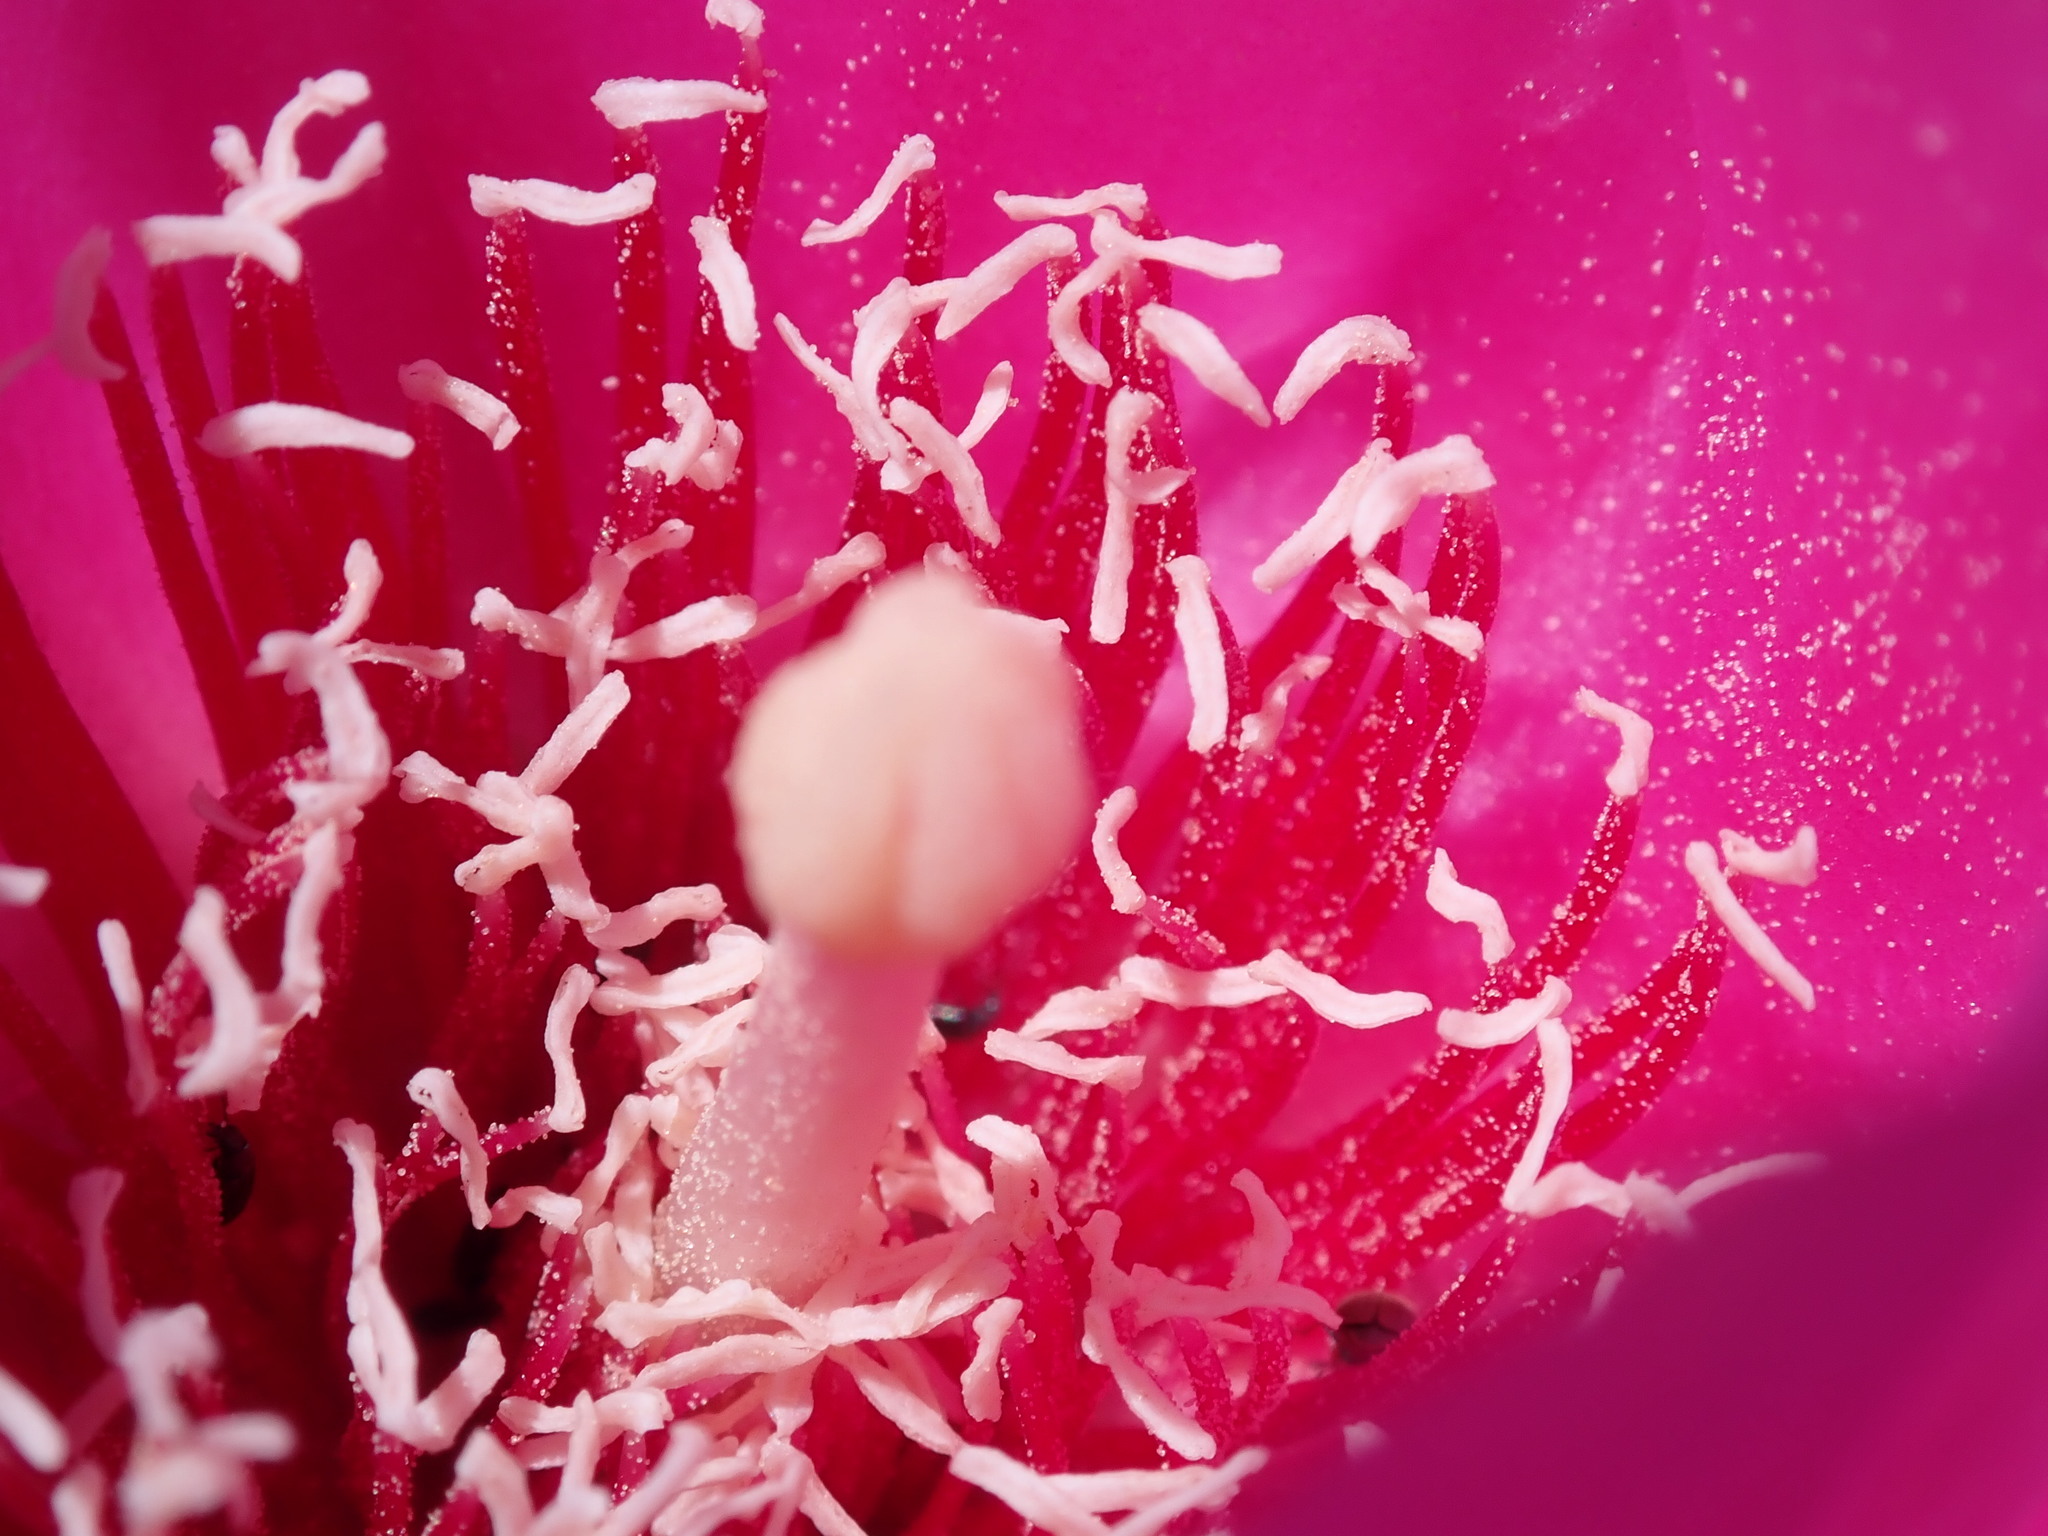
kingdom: Plantae
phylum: Tracheophyta
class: Magnoliopsida
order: Caryophyllales
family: Cactaceae
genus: Opuntia
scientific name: Opuntia basilaris
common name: Beavertail prickly-pear
